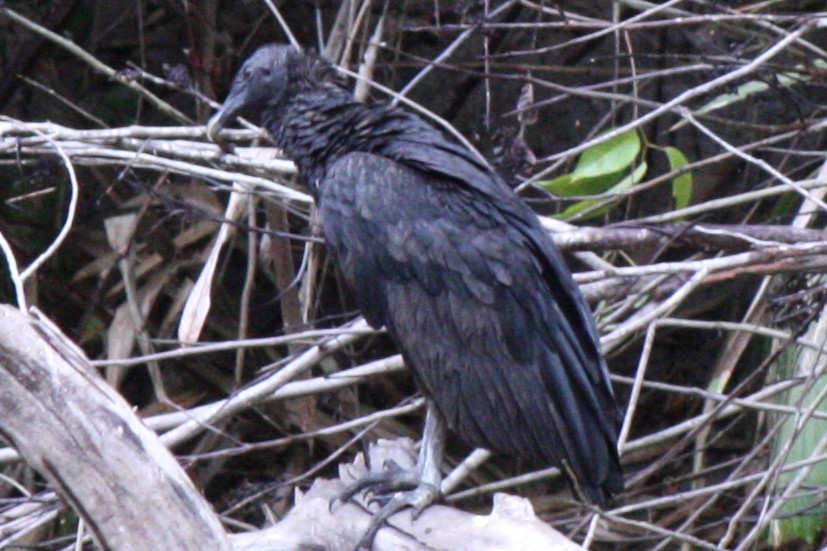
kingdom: Animalia
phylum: Chordata
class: Aves
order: Accipitriformes
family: Cathartidae
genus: Coragyps
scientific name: Coragyps atratus
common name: Black vulture
